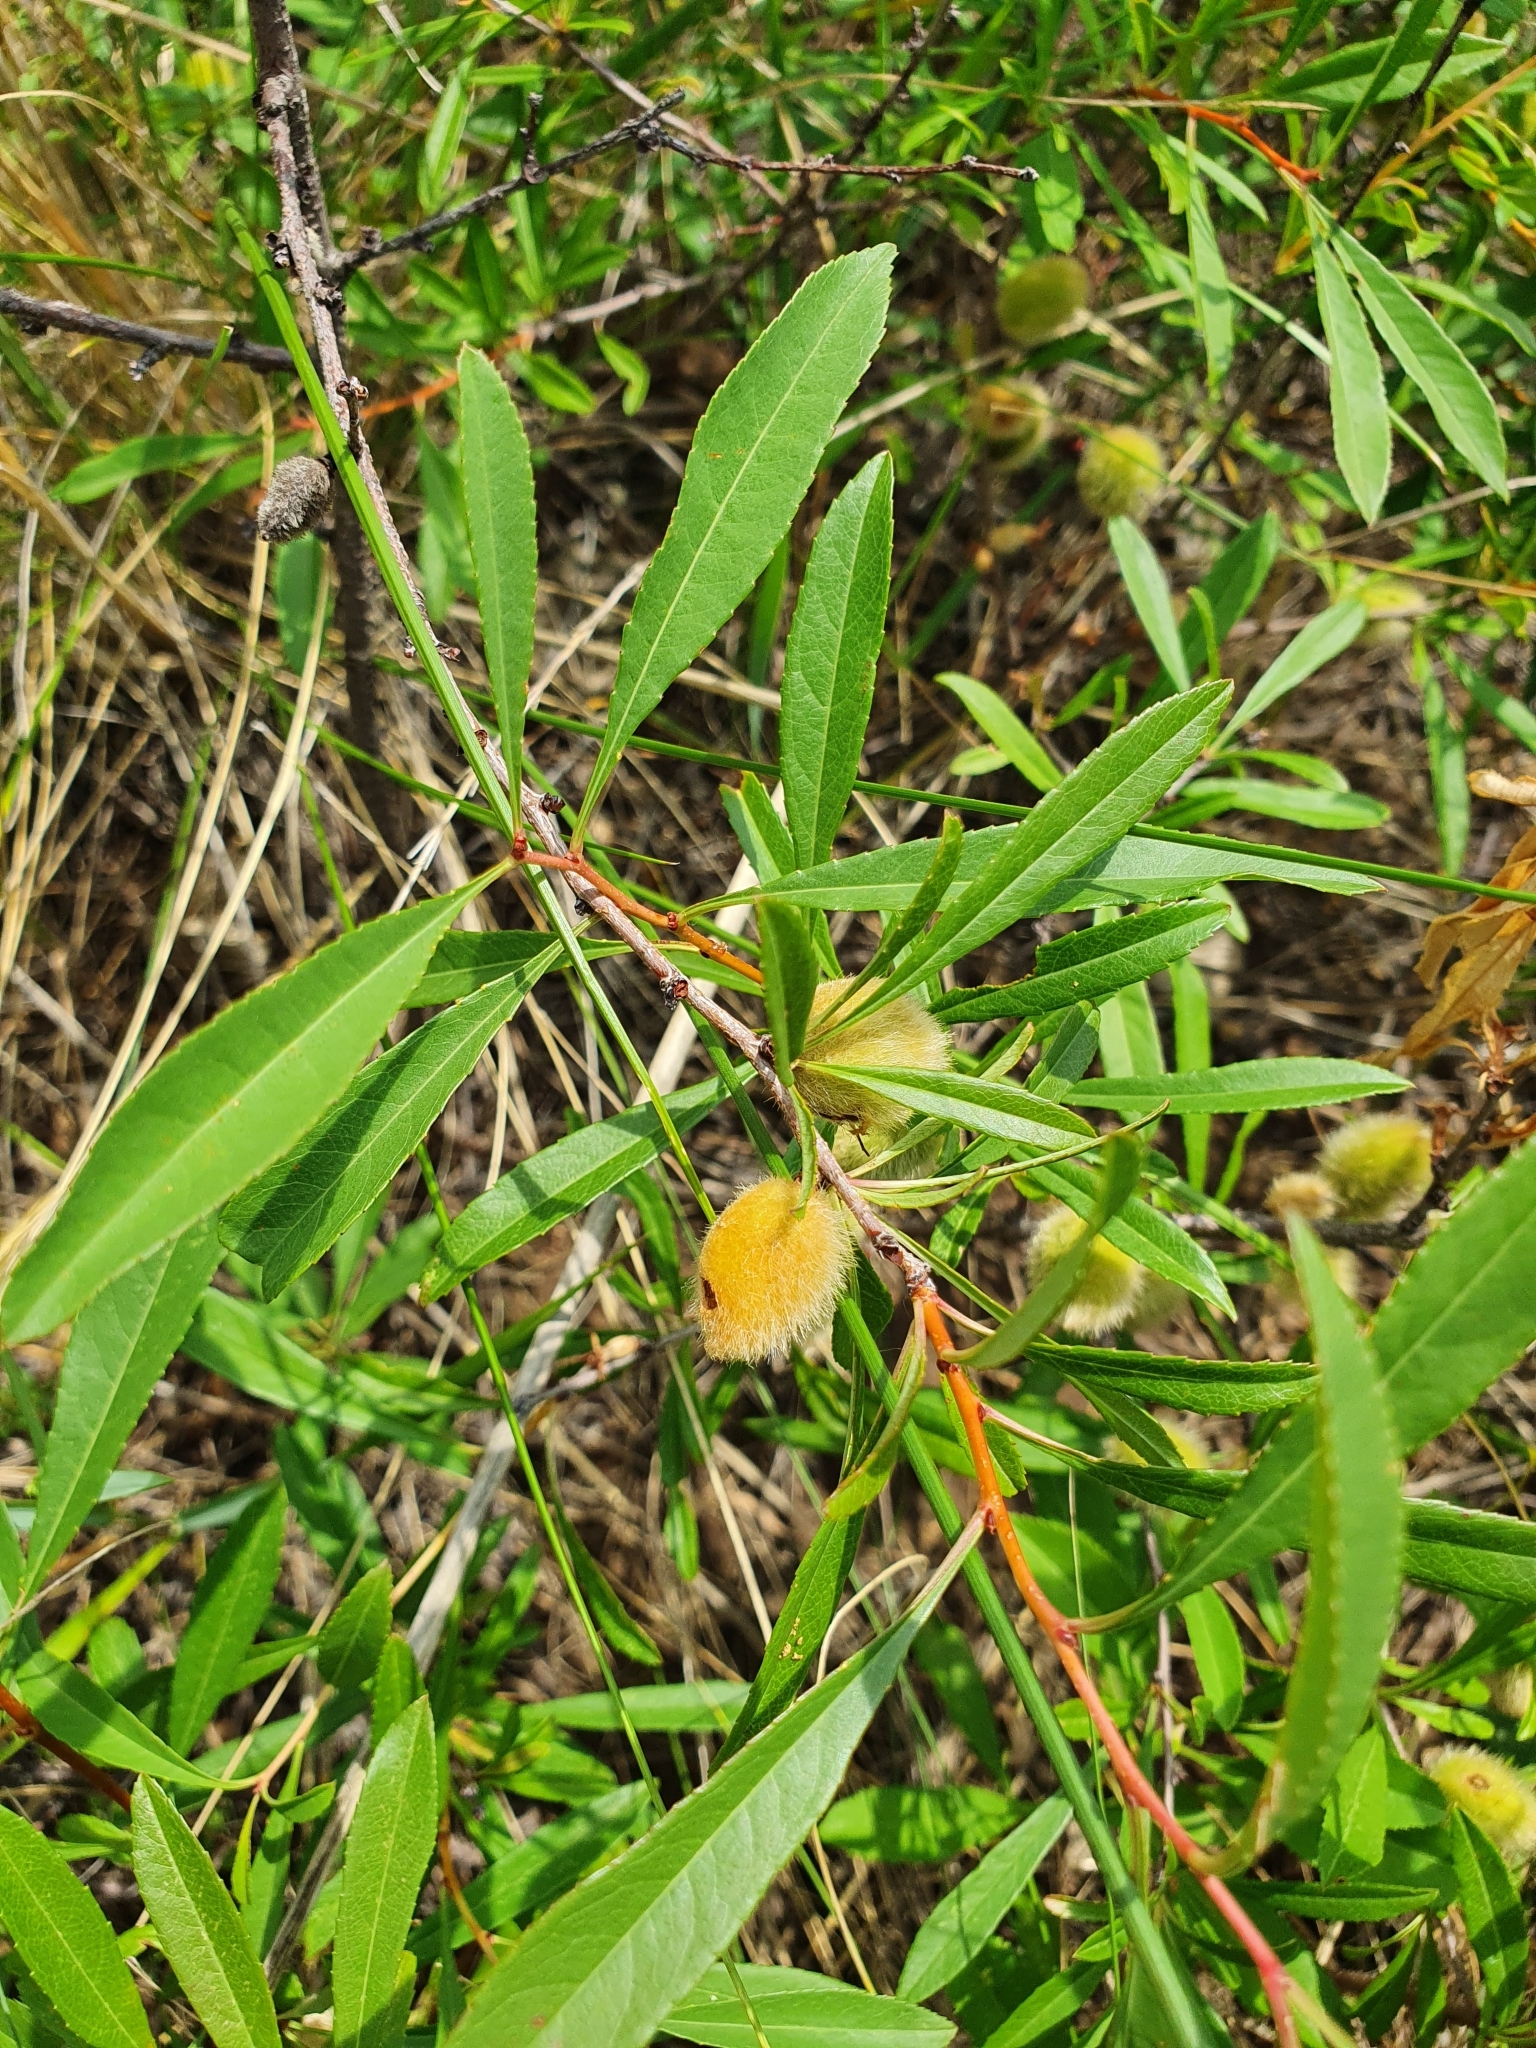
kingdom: Plantae
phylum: Tracheophyta
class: Magnoliopsida
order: Rosales
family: Rosaceae
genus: Prunus
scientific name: Prunus tenella
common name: Dwarf russian almond
